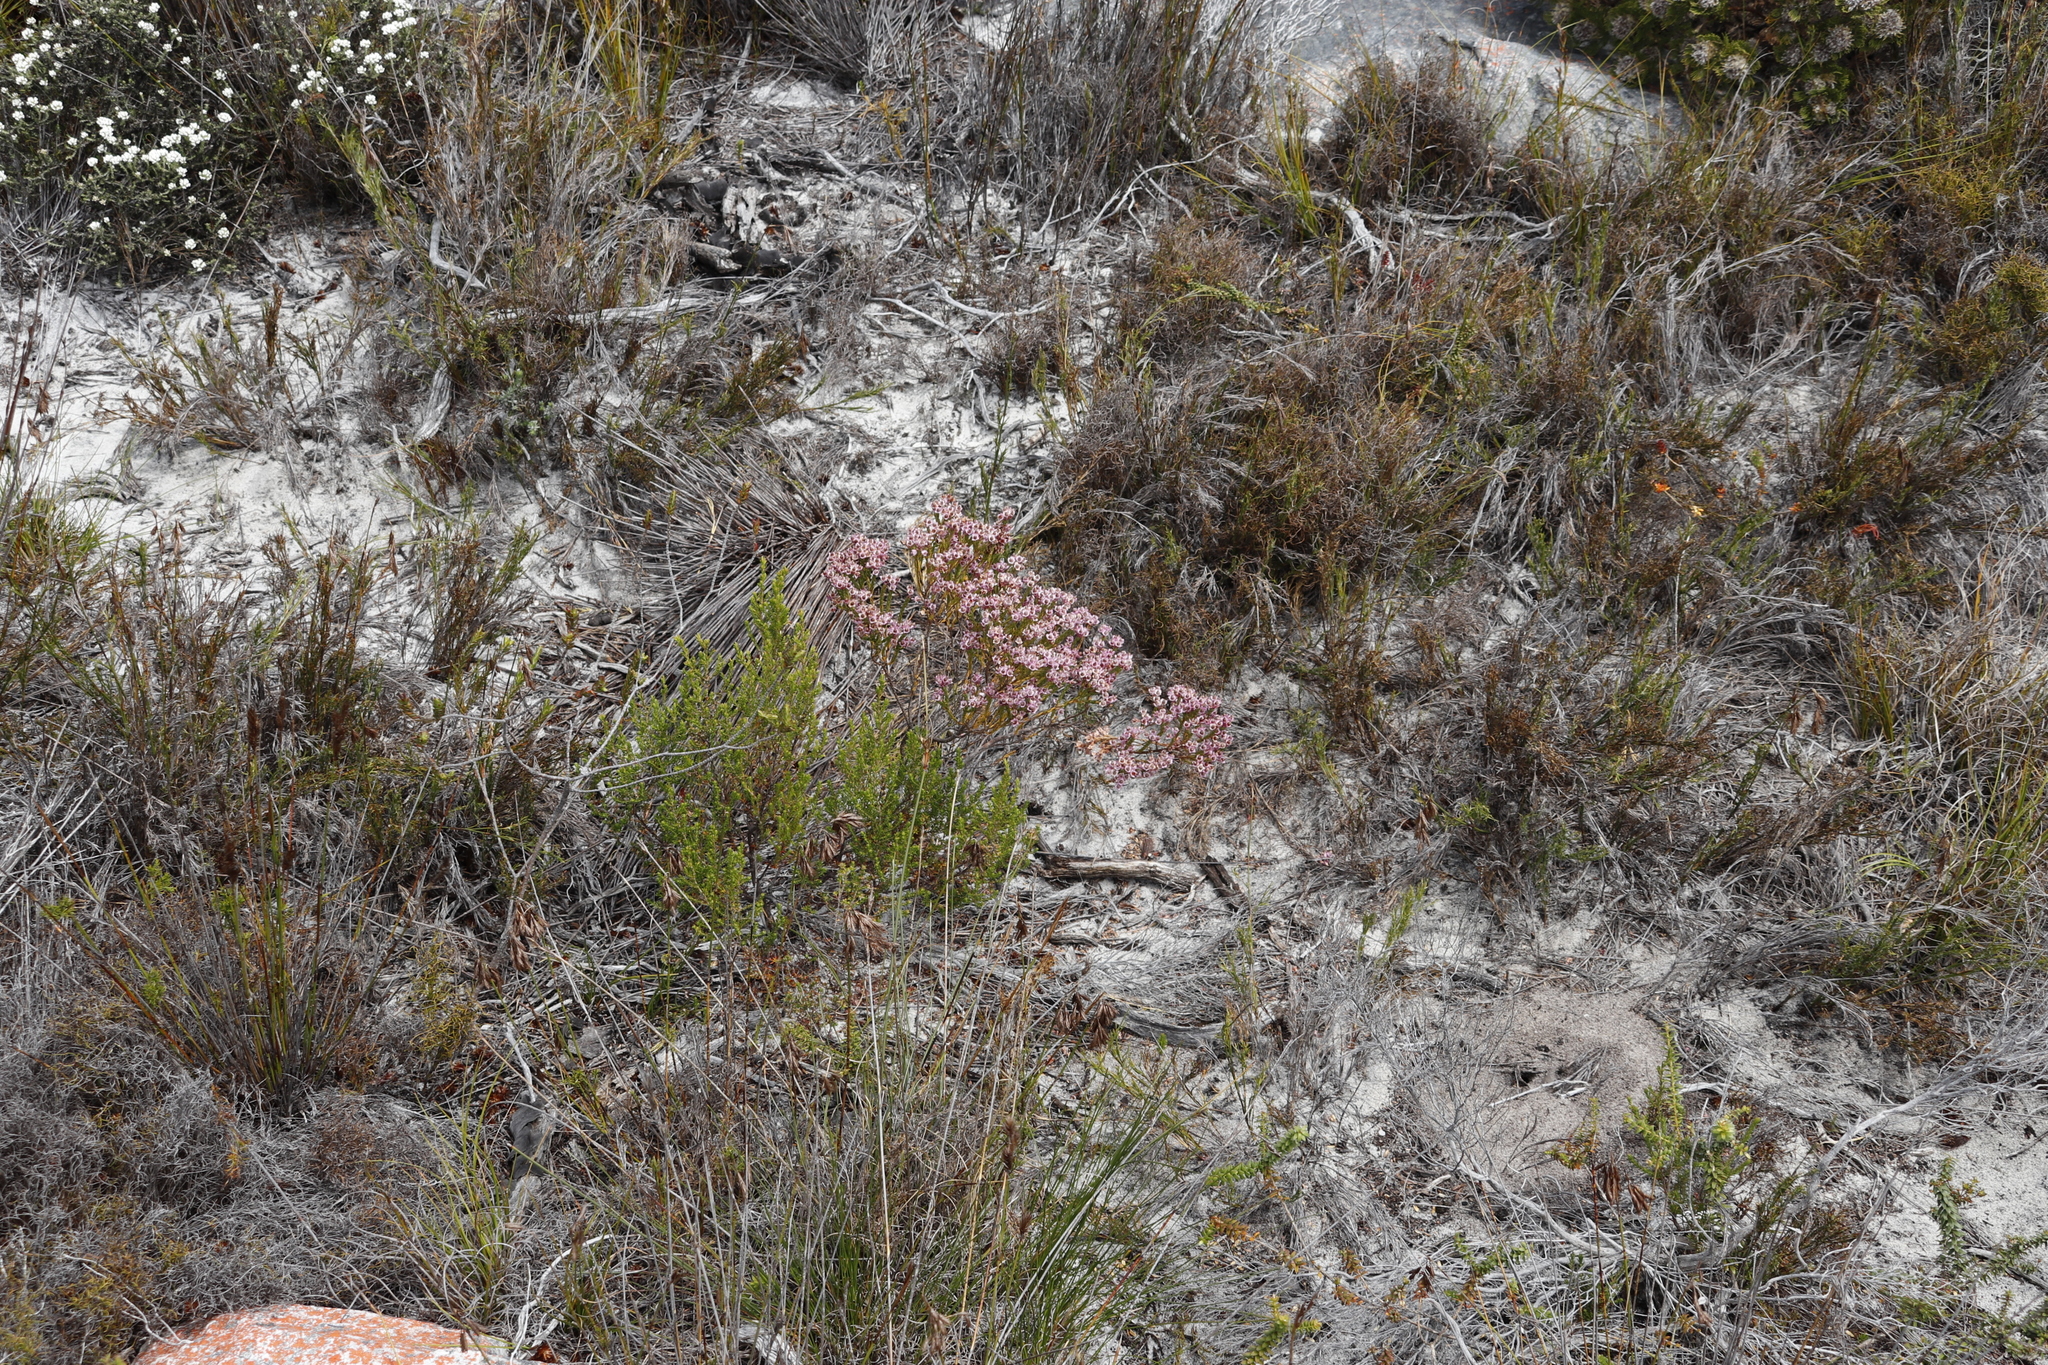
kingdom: Plantae
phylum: Tracheophyta
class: Magnoliopsida
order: Ericales
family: Ericaceae
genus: Erica
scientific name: Erica corifolia
